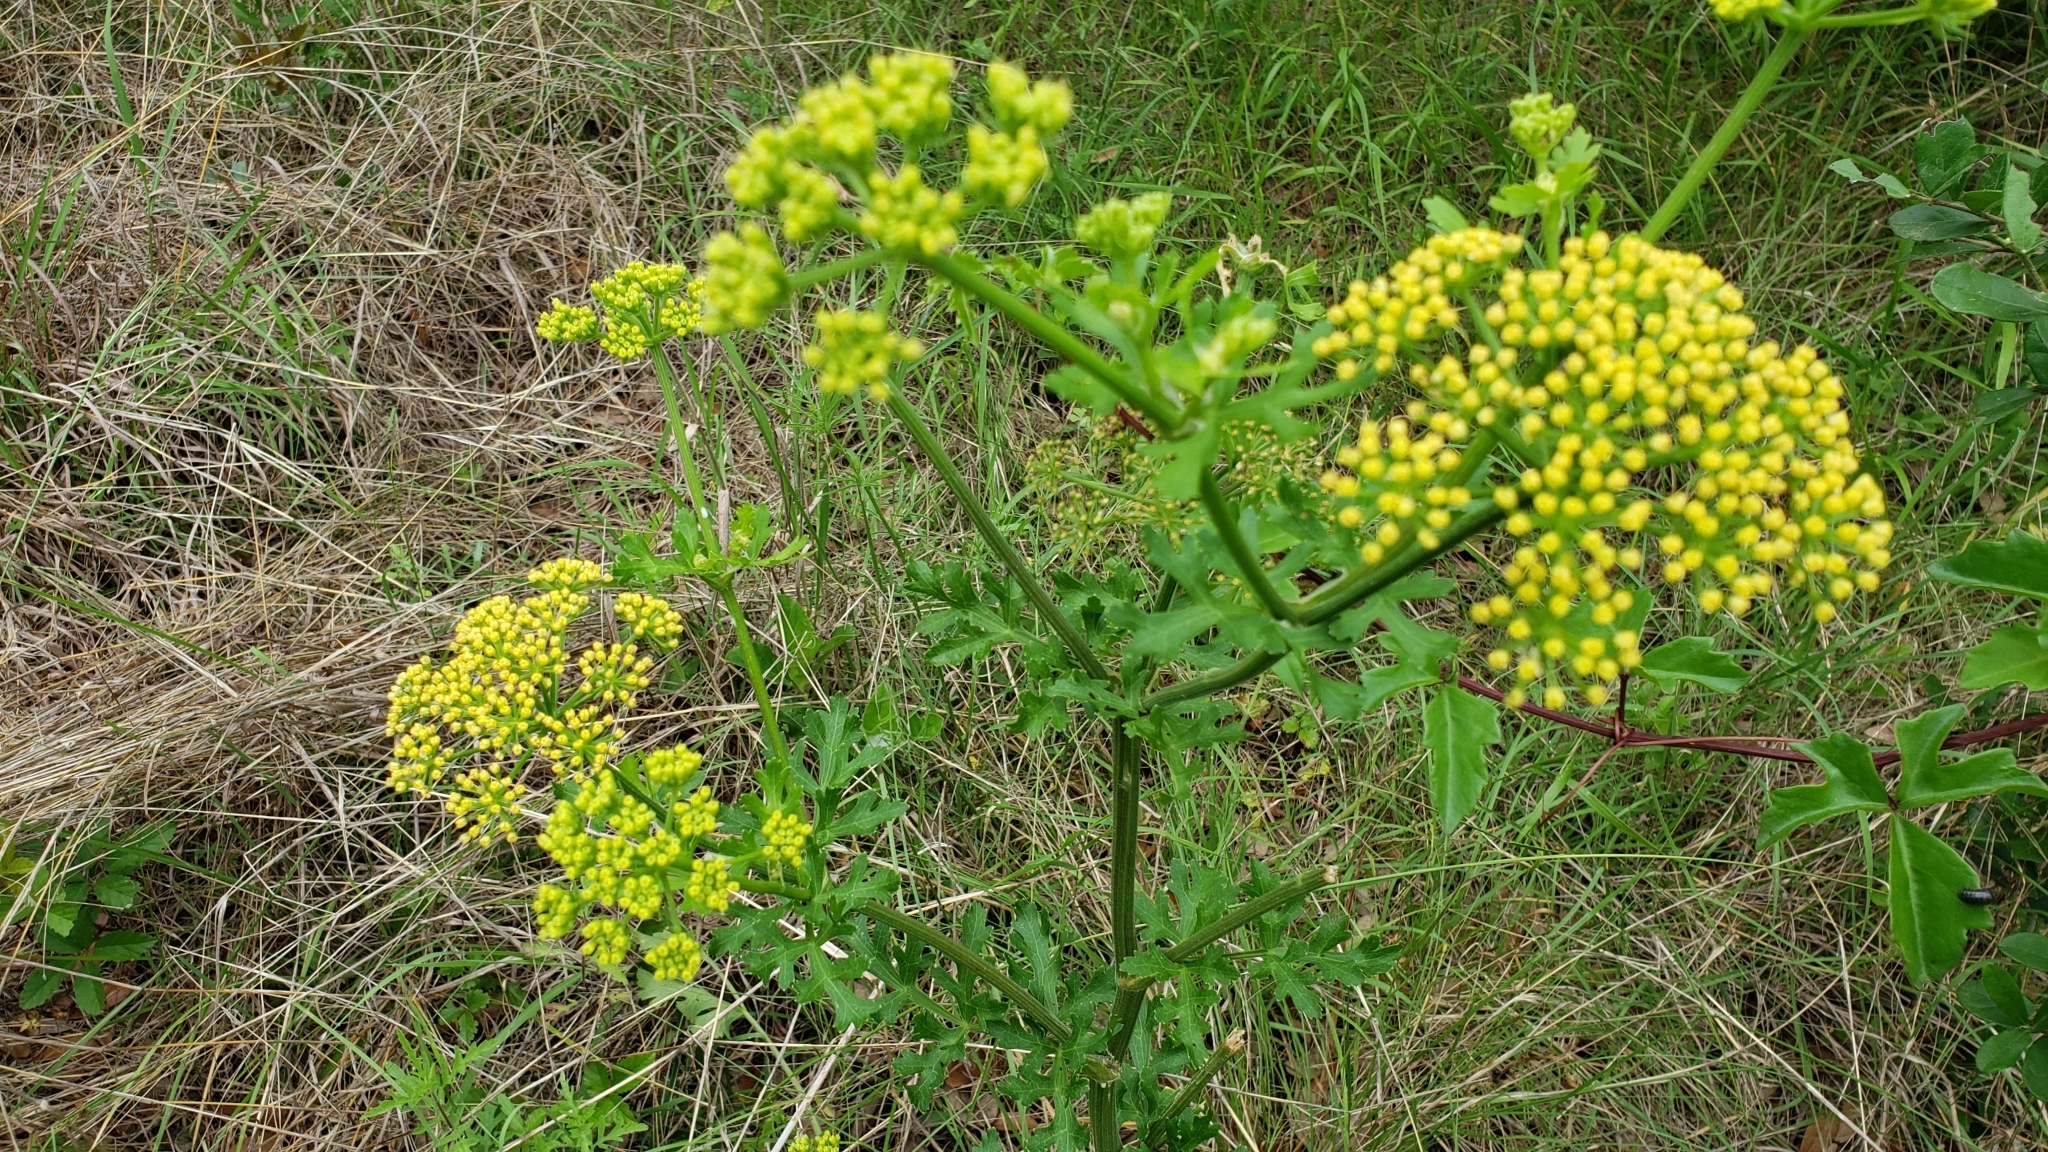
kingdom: Plantae
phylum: Tracheophyta
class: Magnoliopsida
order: Apiales
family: Apiaceae
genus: Polytaenia
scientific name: Polytaenia texana
